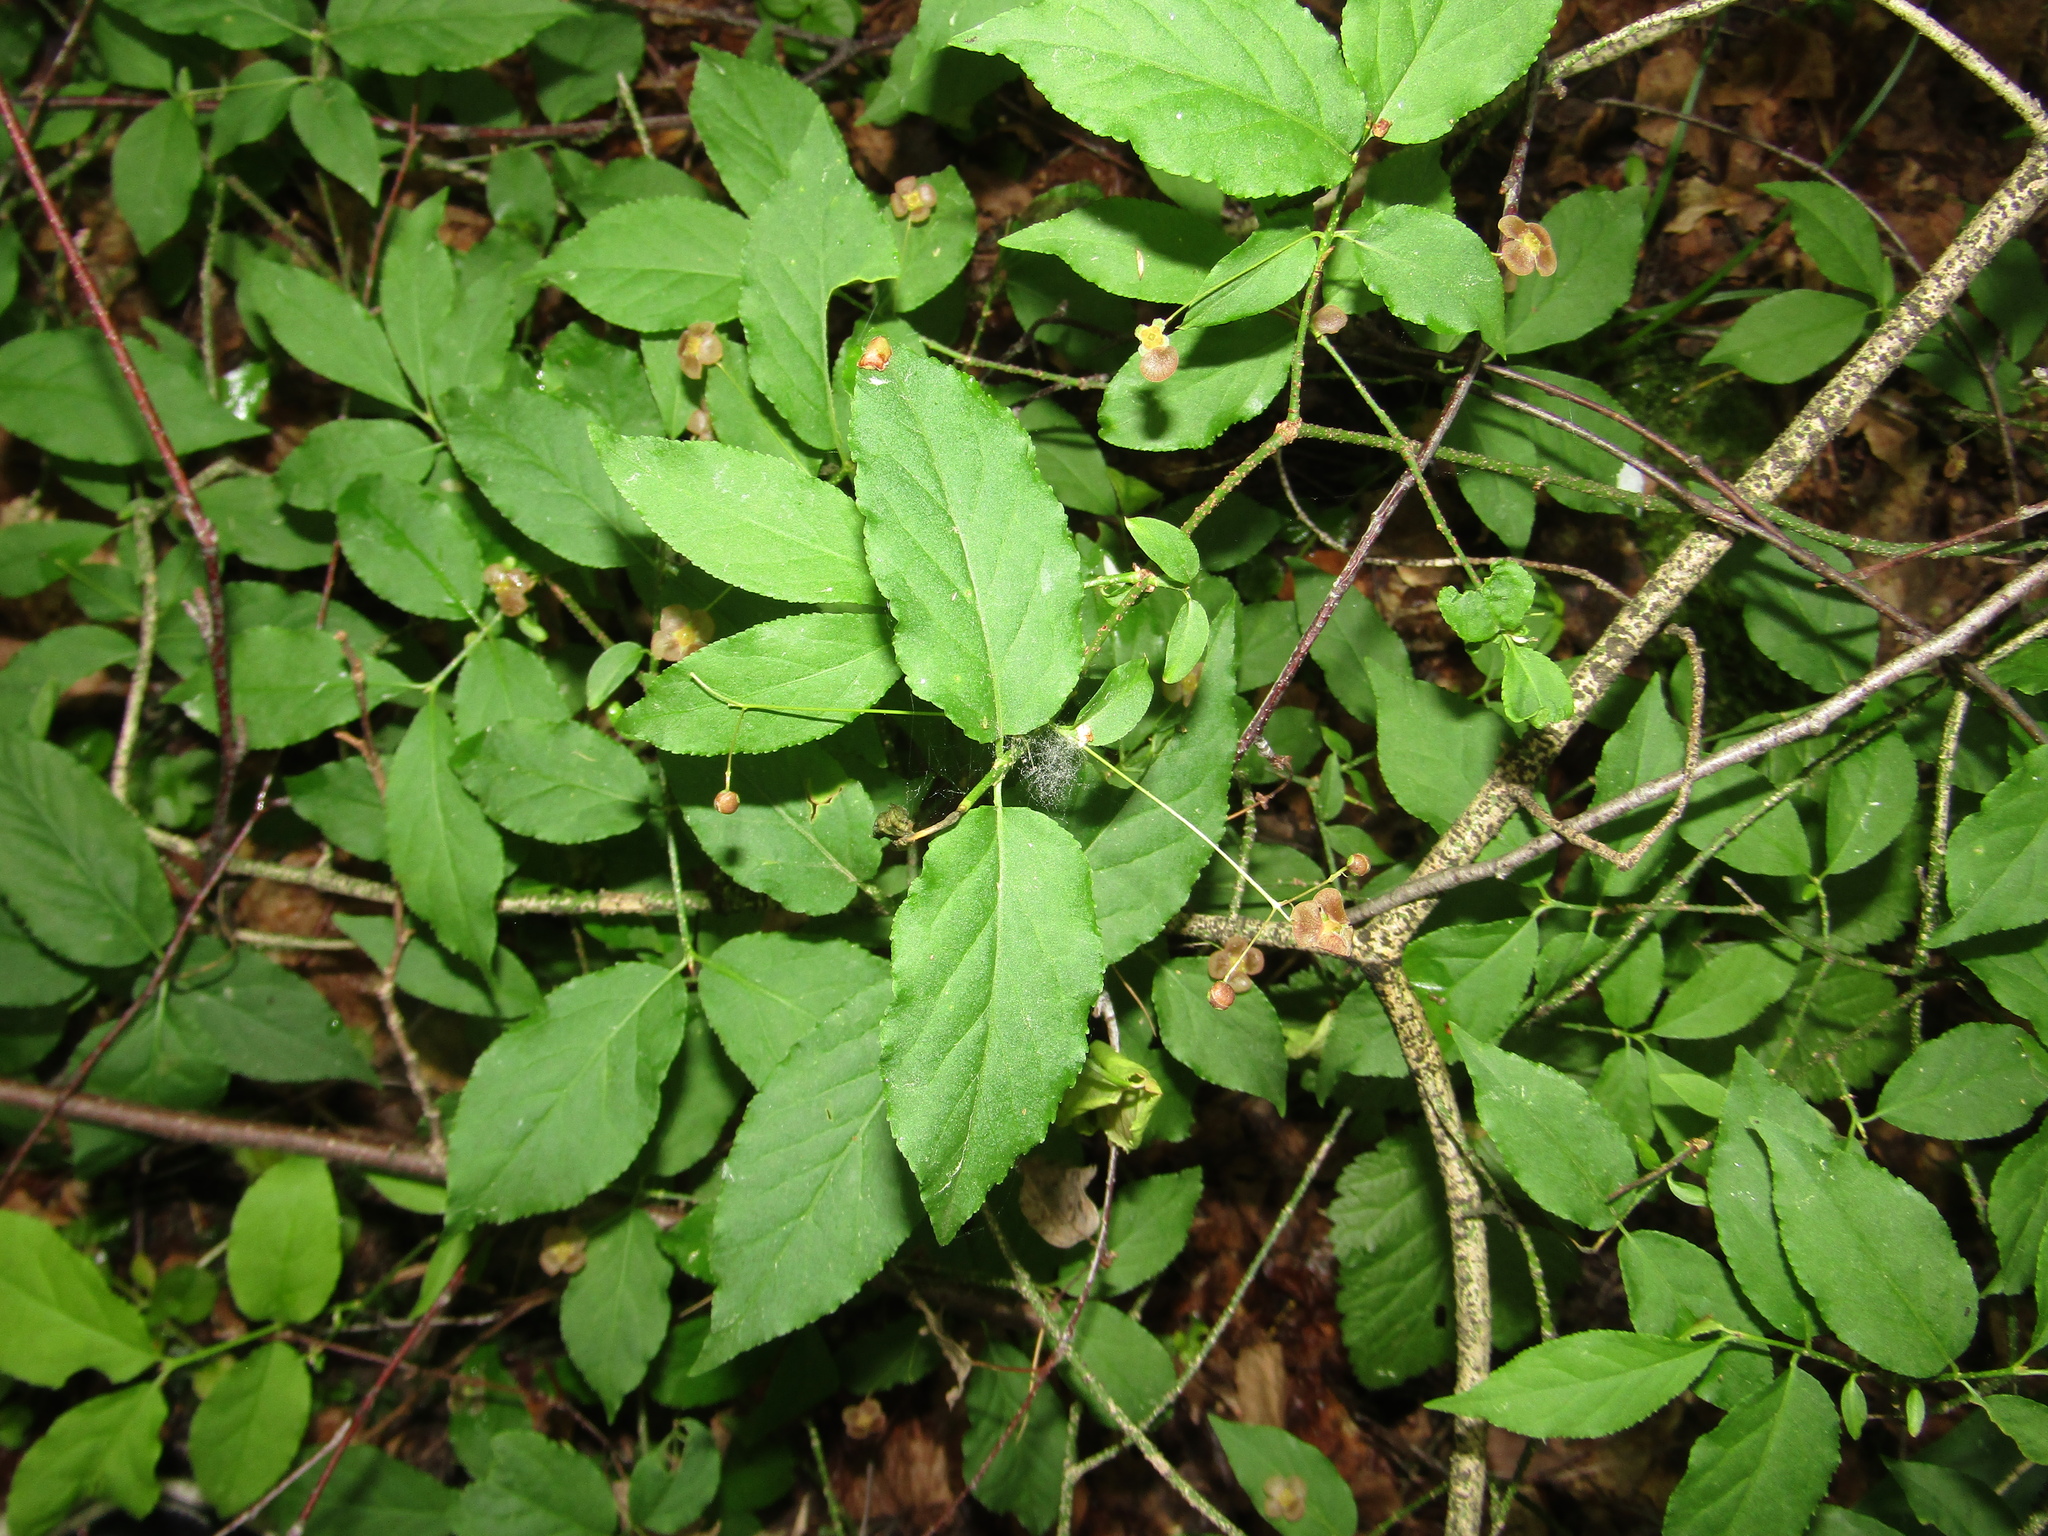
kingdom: Plantae
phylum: Tracheophyta
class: Magnoliopsida
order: Celastrales
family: Celastraceae
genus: Euonymus
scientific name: Euonymus verrucosus
